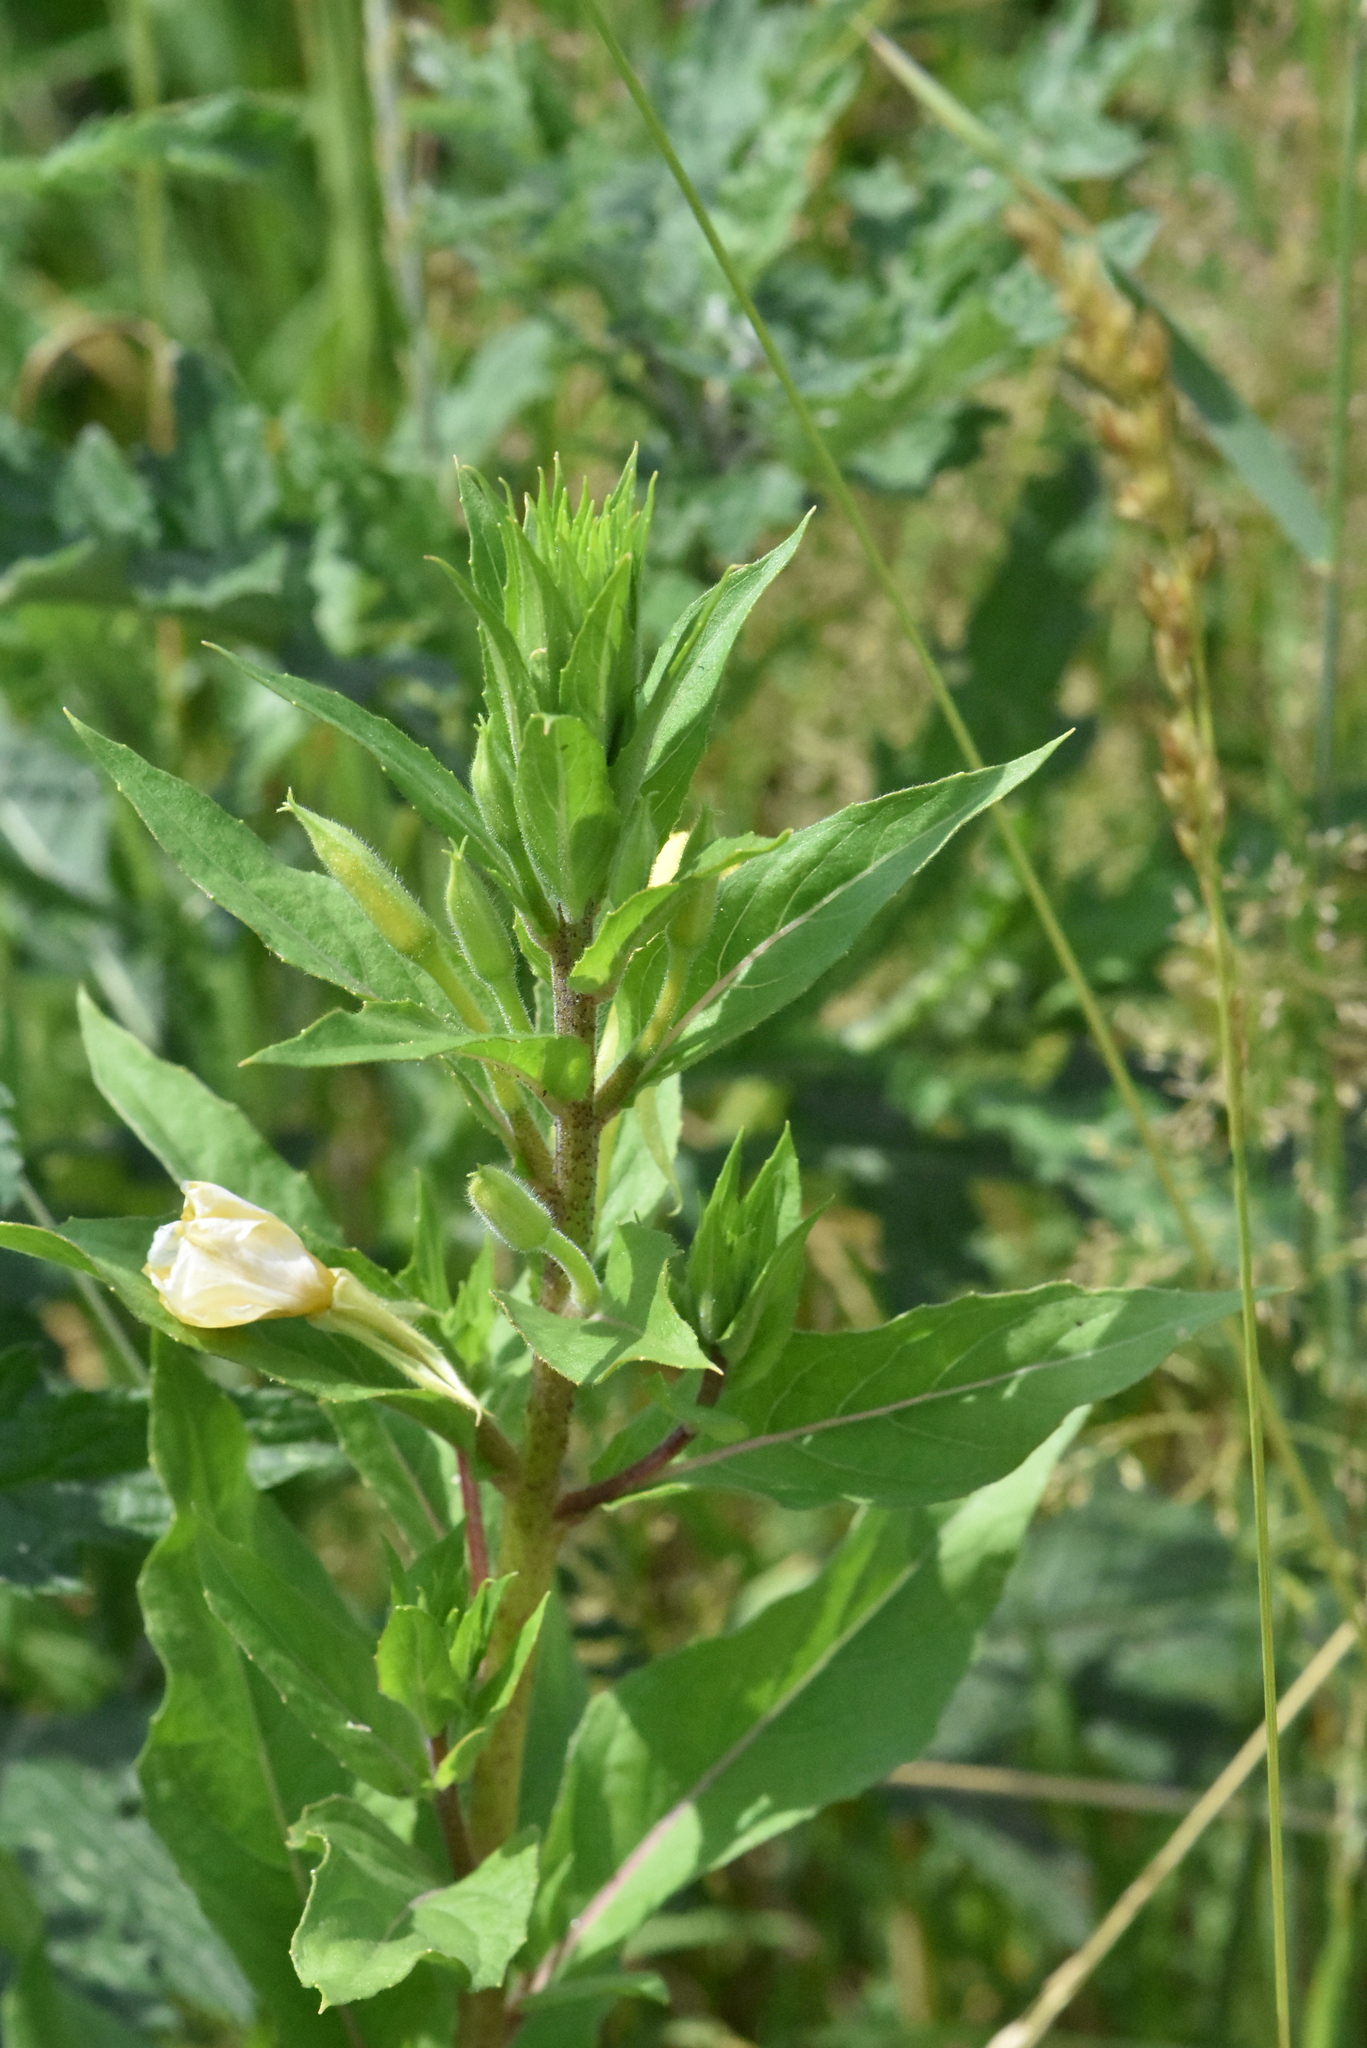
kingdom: Plantae
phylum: Tracheophyta
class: Magnoliopsida
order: Myrtales
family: Onagraceae
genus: Oenothera
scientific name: Oenothera rubricaulis
